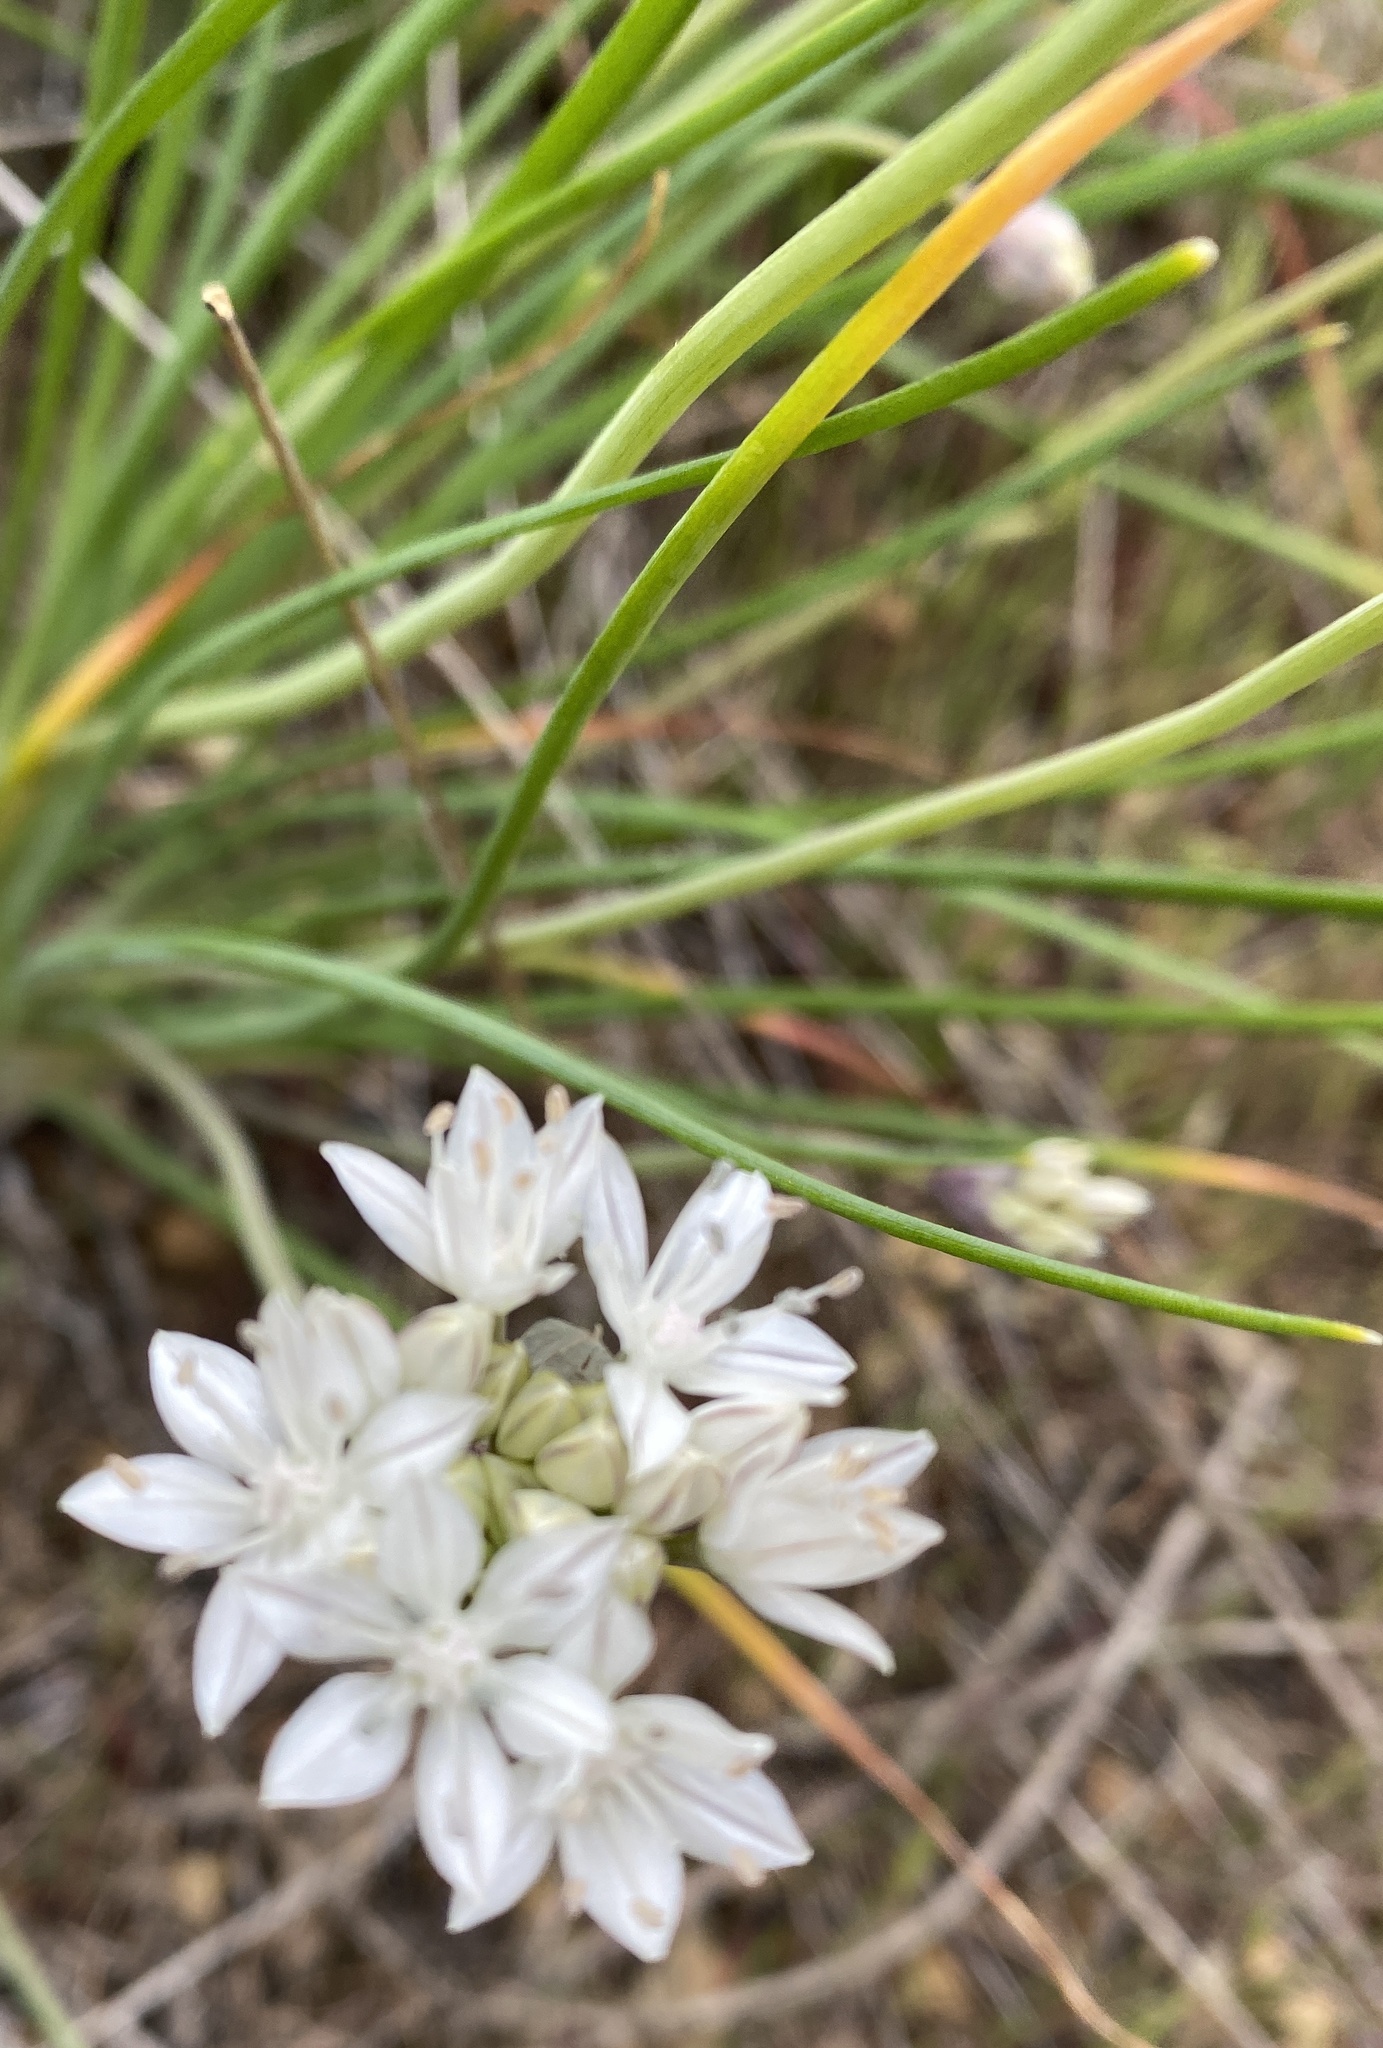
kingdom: Plantae
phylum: Tracheophyta
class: Liliopsida
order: Asparagales
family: Amaryllidaceae
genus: Allium
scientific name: Allium haematochiton
